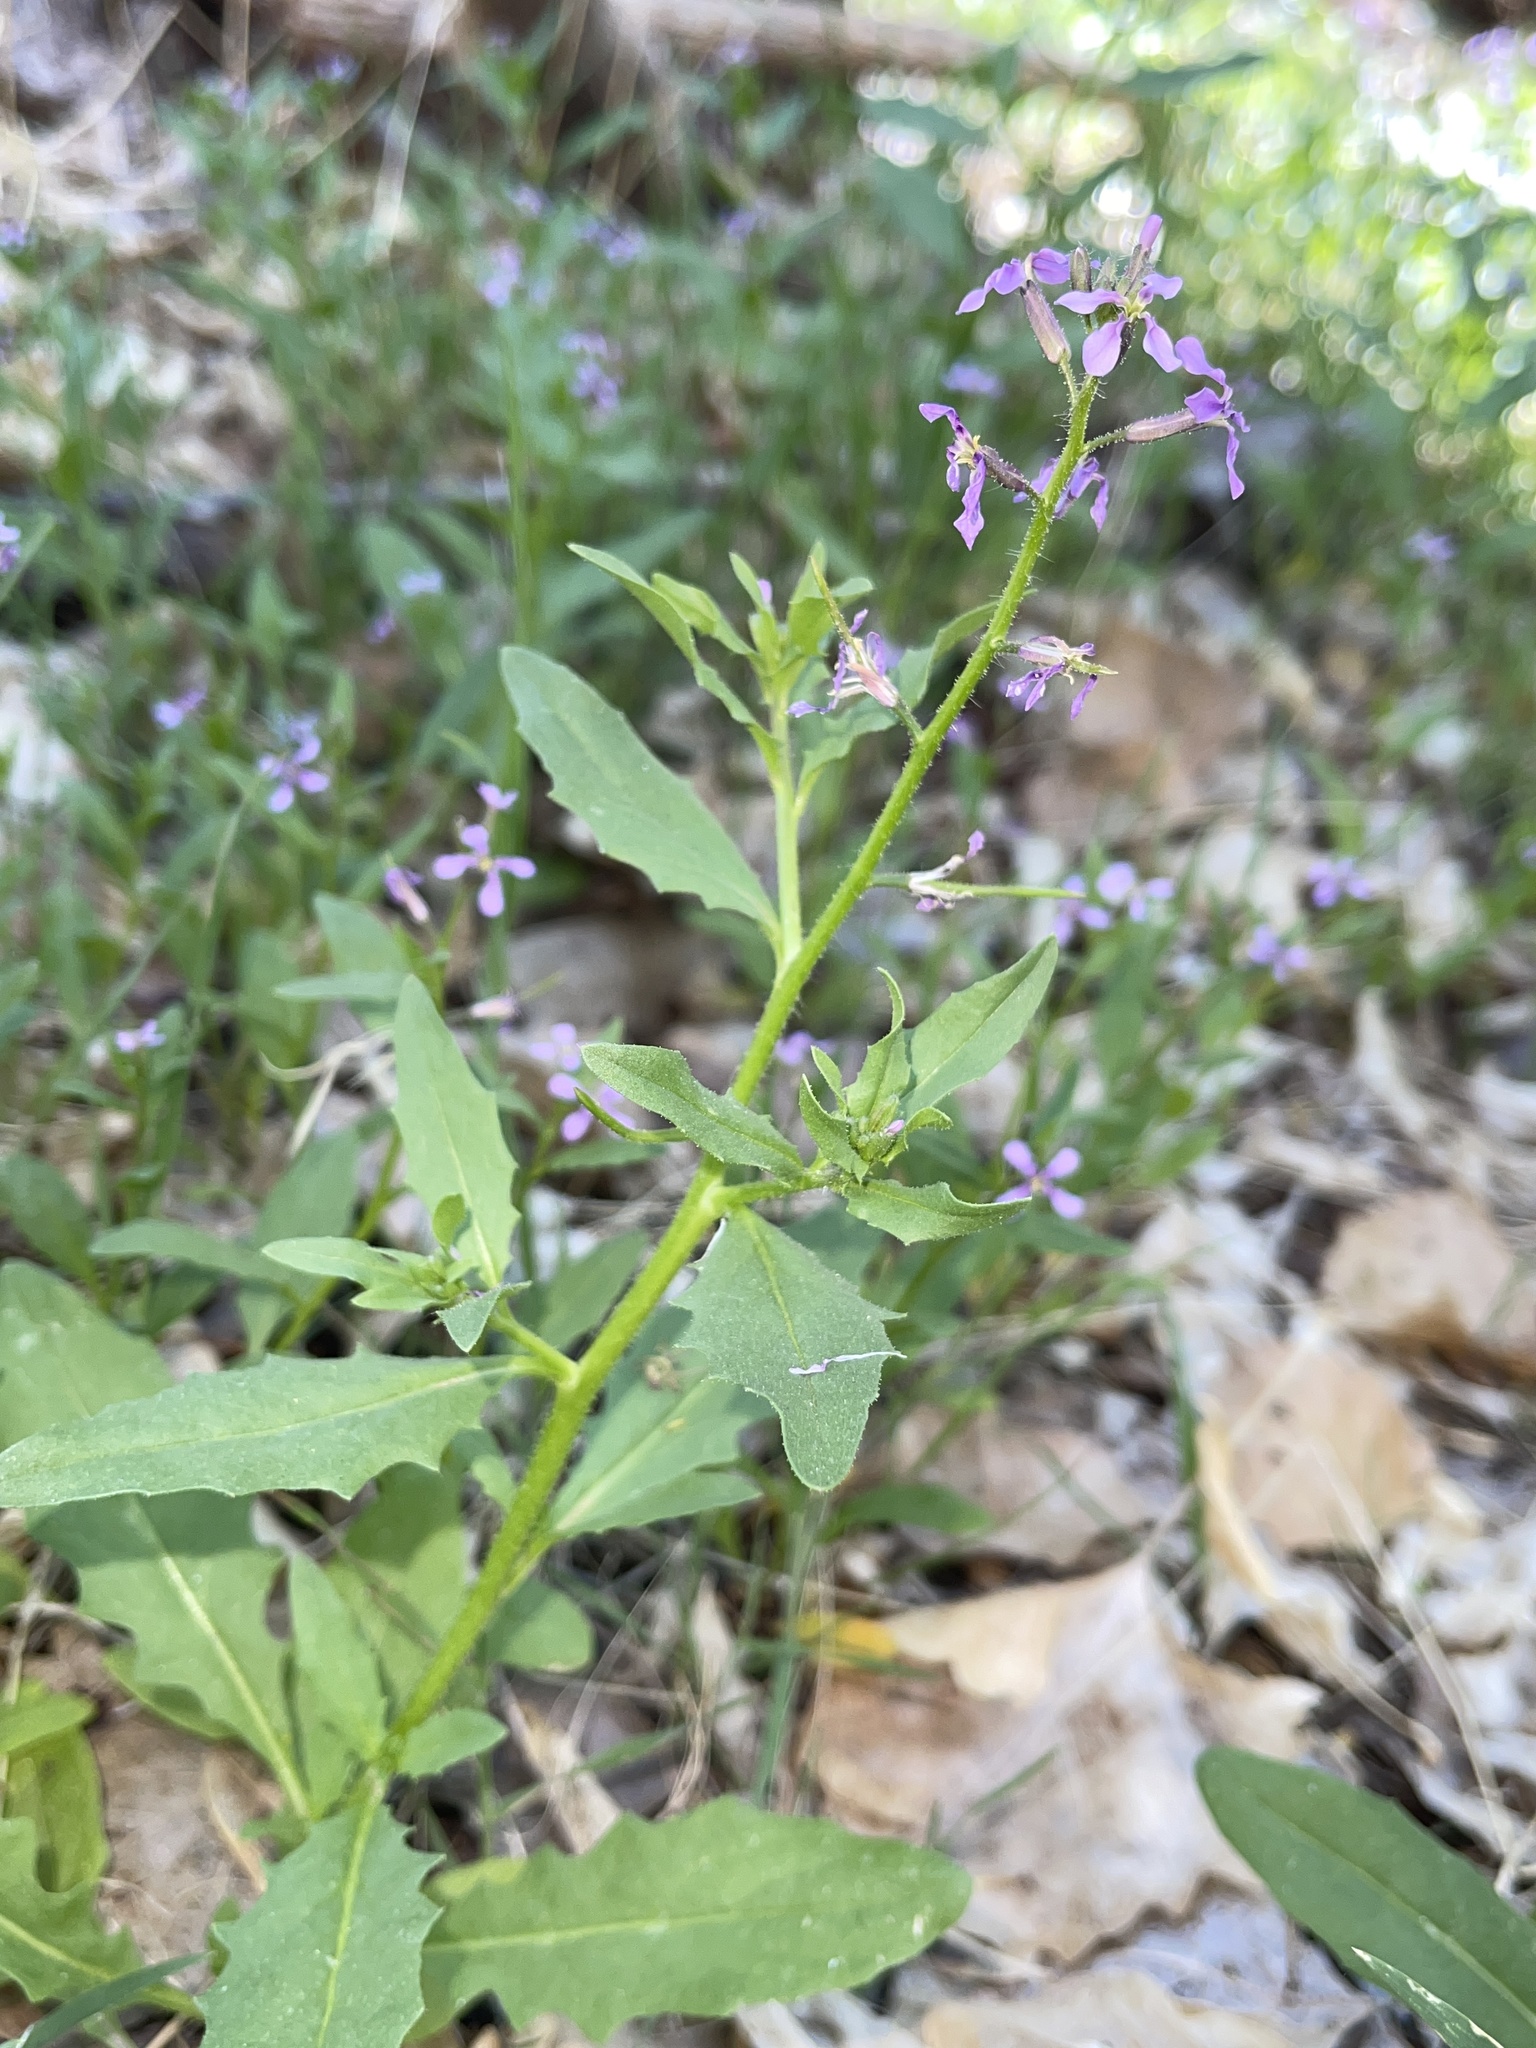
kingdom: Plantae
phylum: Tracheophyta
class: Magnoliopsida
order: Brassicales
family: Brassicaceae
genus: Chorispora
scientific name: Chorispora tenella
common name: Crossflower
